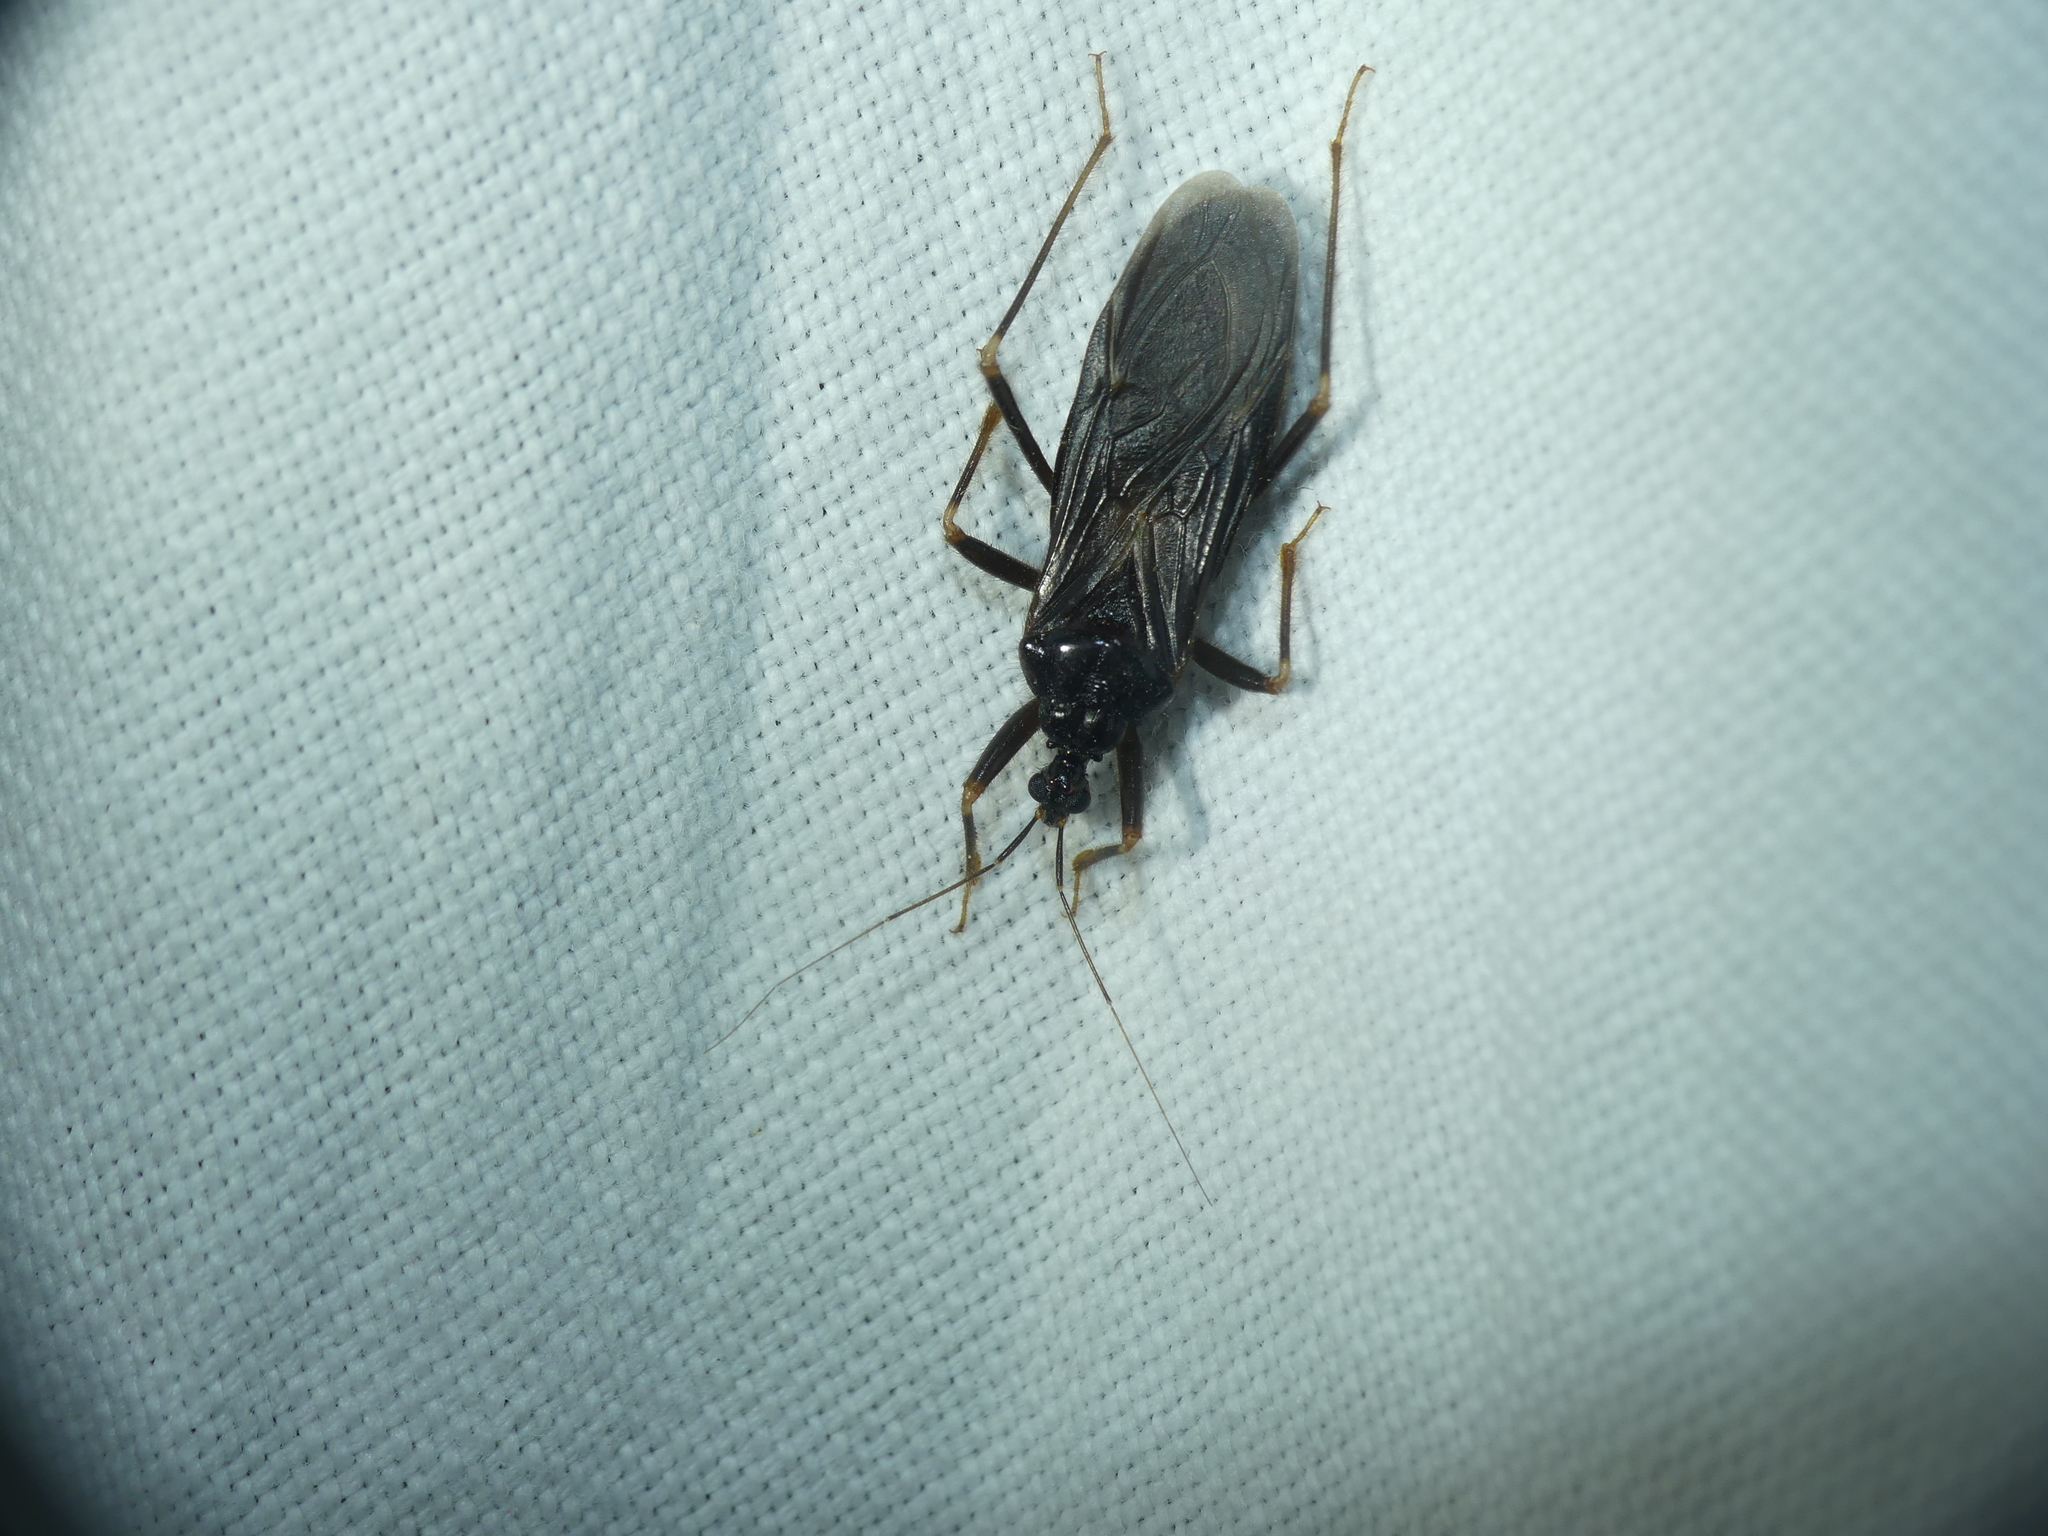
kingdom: Animalia
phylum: Arthropoda
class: Insecta
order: Hemiptera
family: Reduviidae
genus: Reduvius
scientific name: Reduvius personatus
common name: Masked hunter
